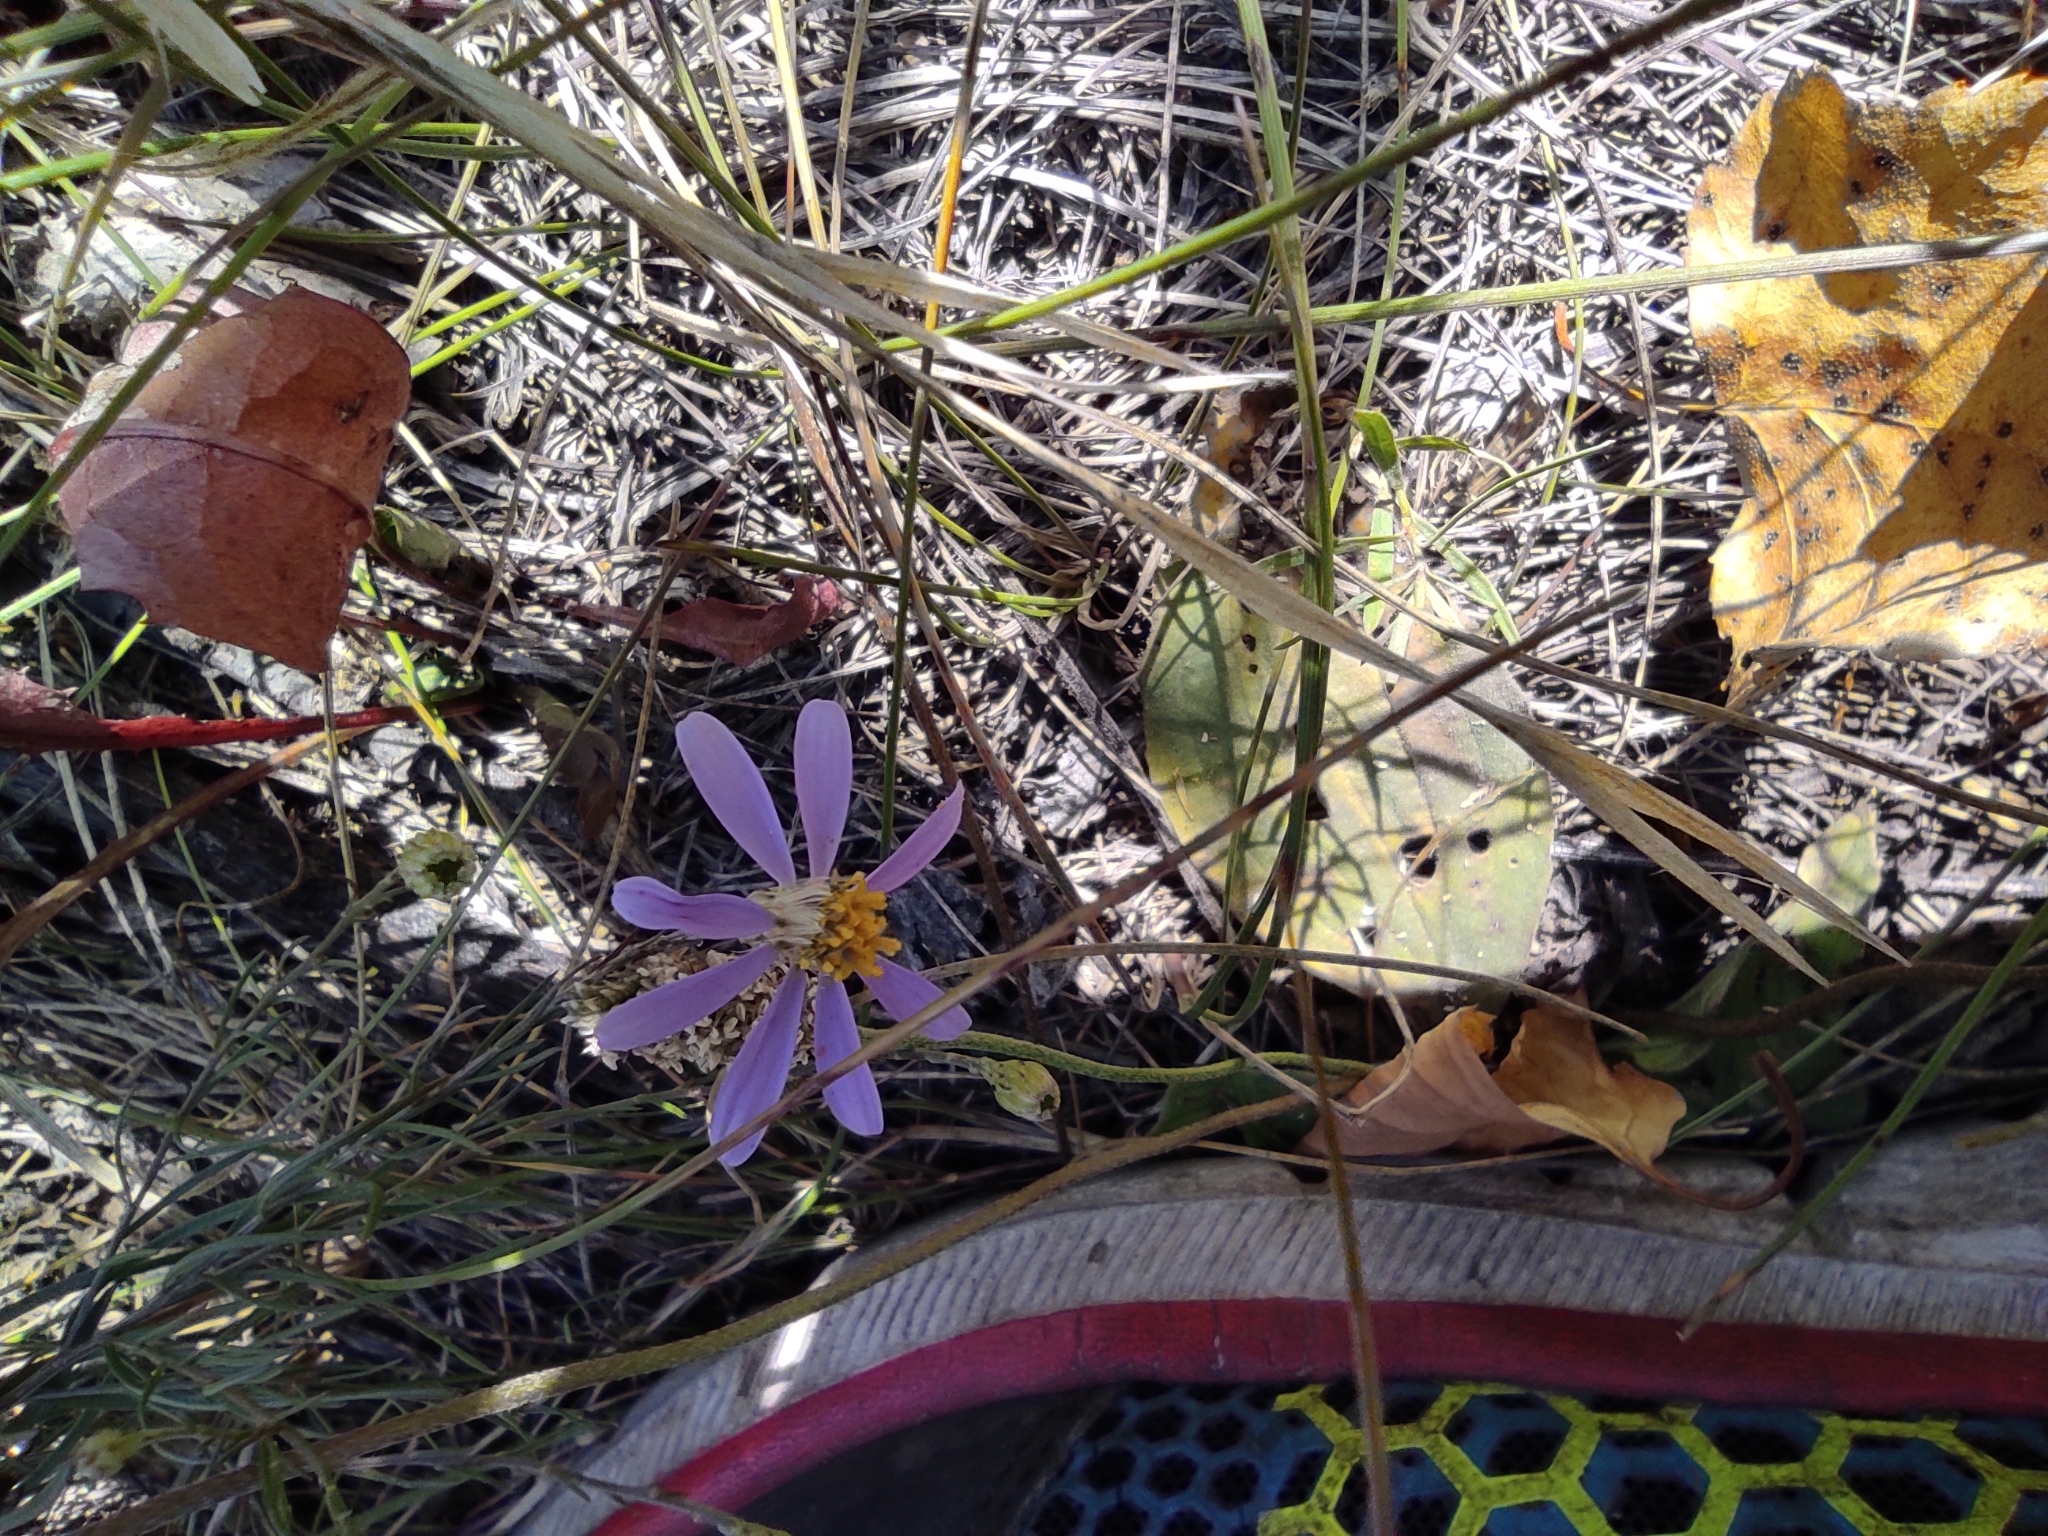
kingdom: Plantae
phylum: Tracheophyta
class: Magnoliopsida
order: Asterales
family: Asteraceae
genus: Galatella
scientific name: Galatella angustissima
